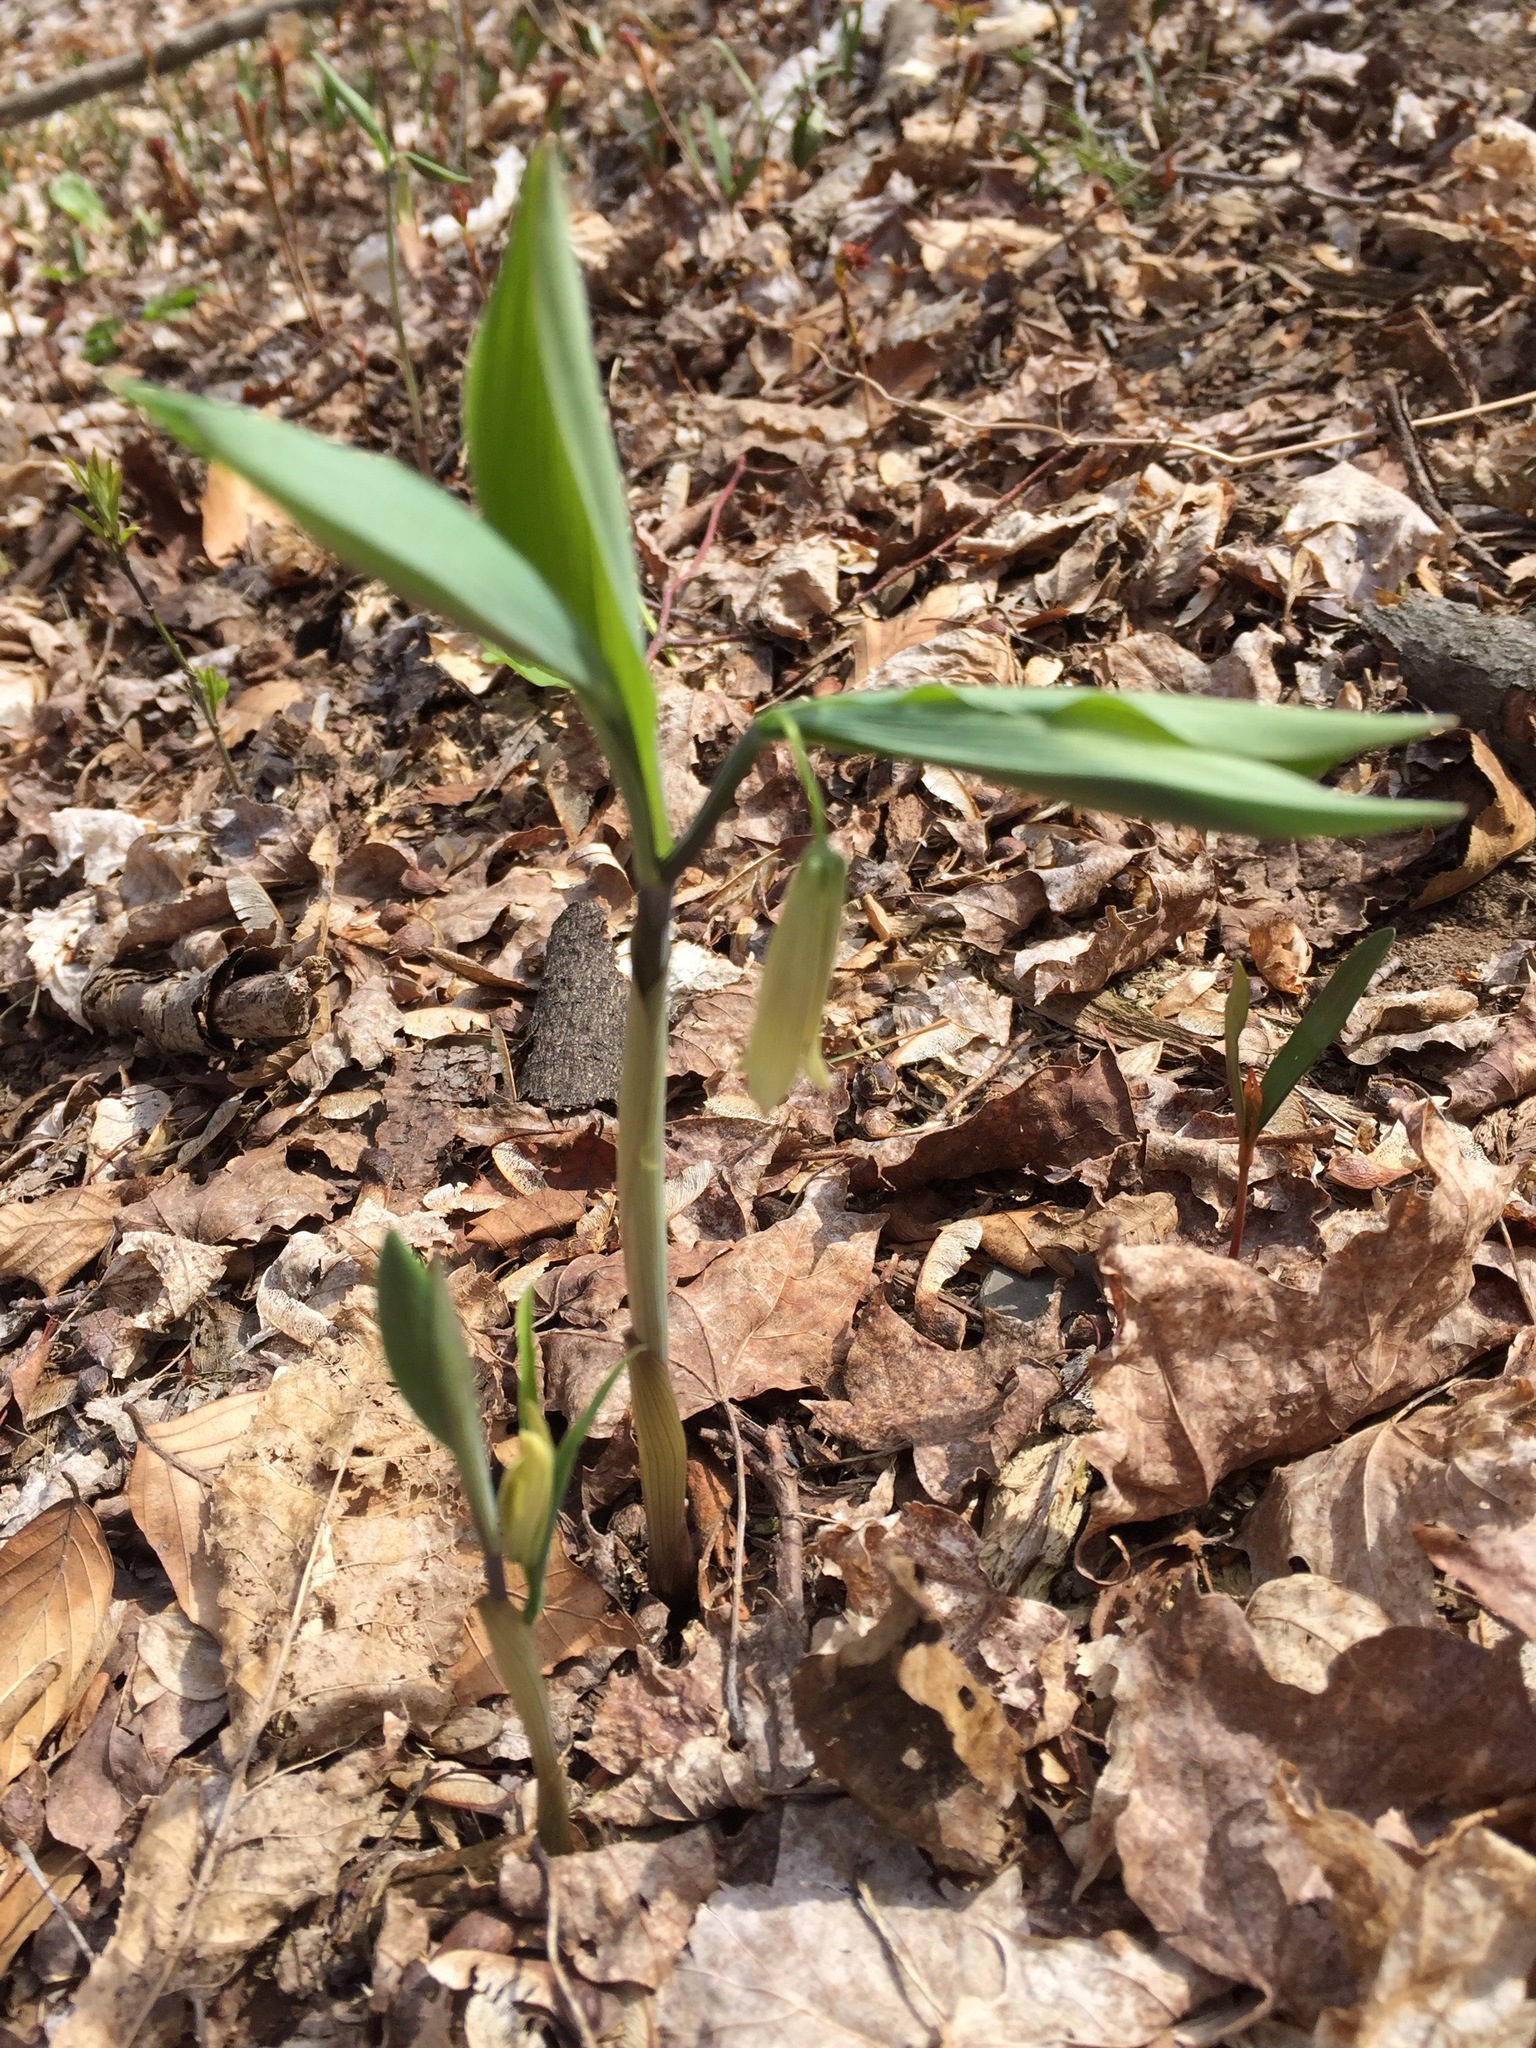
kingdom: Plantae
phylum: Tracheophyta
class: Liliopsida
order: Liliales
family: Colchicaceae
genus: Uvularia
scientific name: Uvularia sessilifolia
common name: Straw-lily
